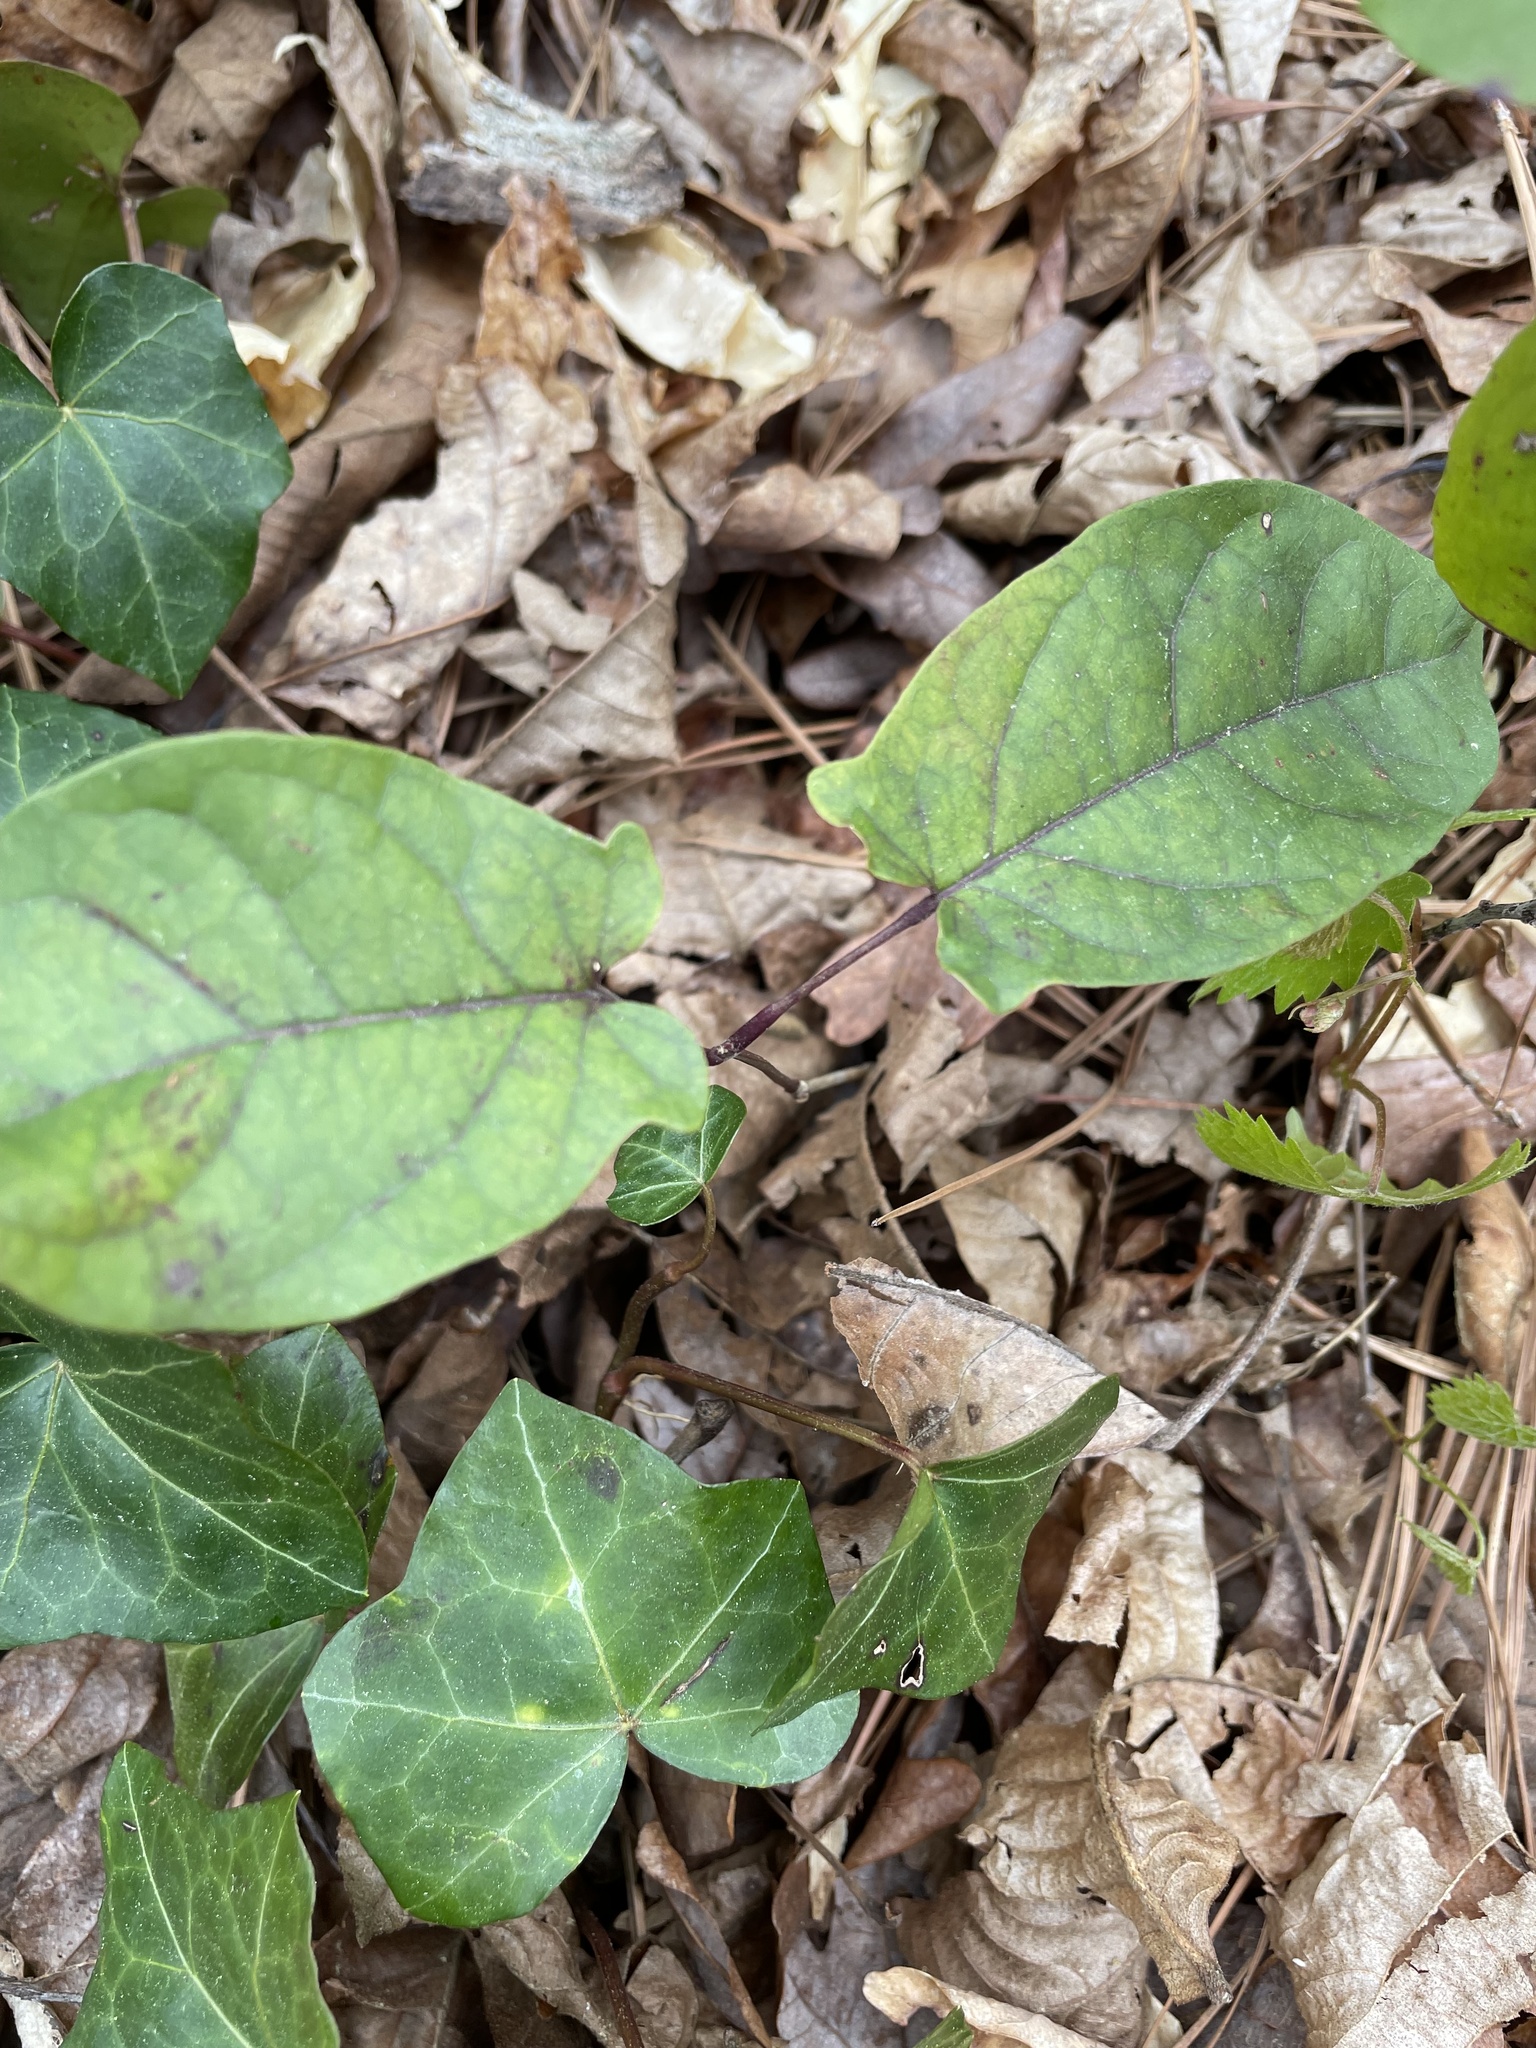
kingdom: Plantae
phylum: Tracheophyta
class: Magnoliopsida
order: Lamiales
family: Bignoniaceae
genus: Bignonia
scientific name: Bignonia capreolata
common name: Crossvine
